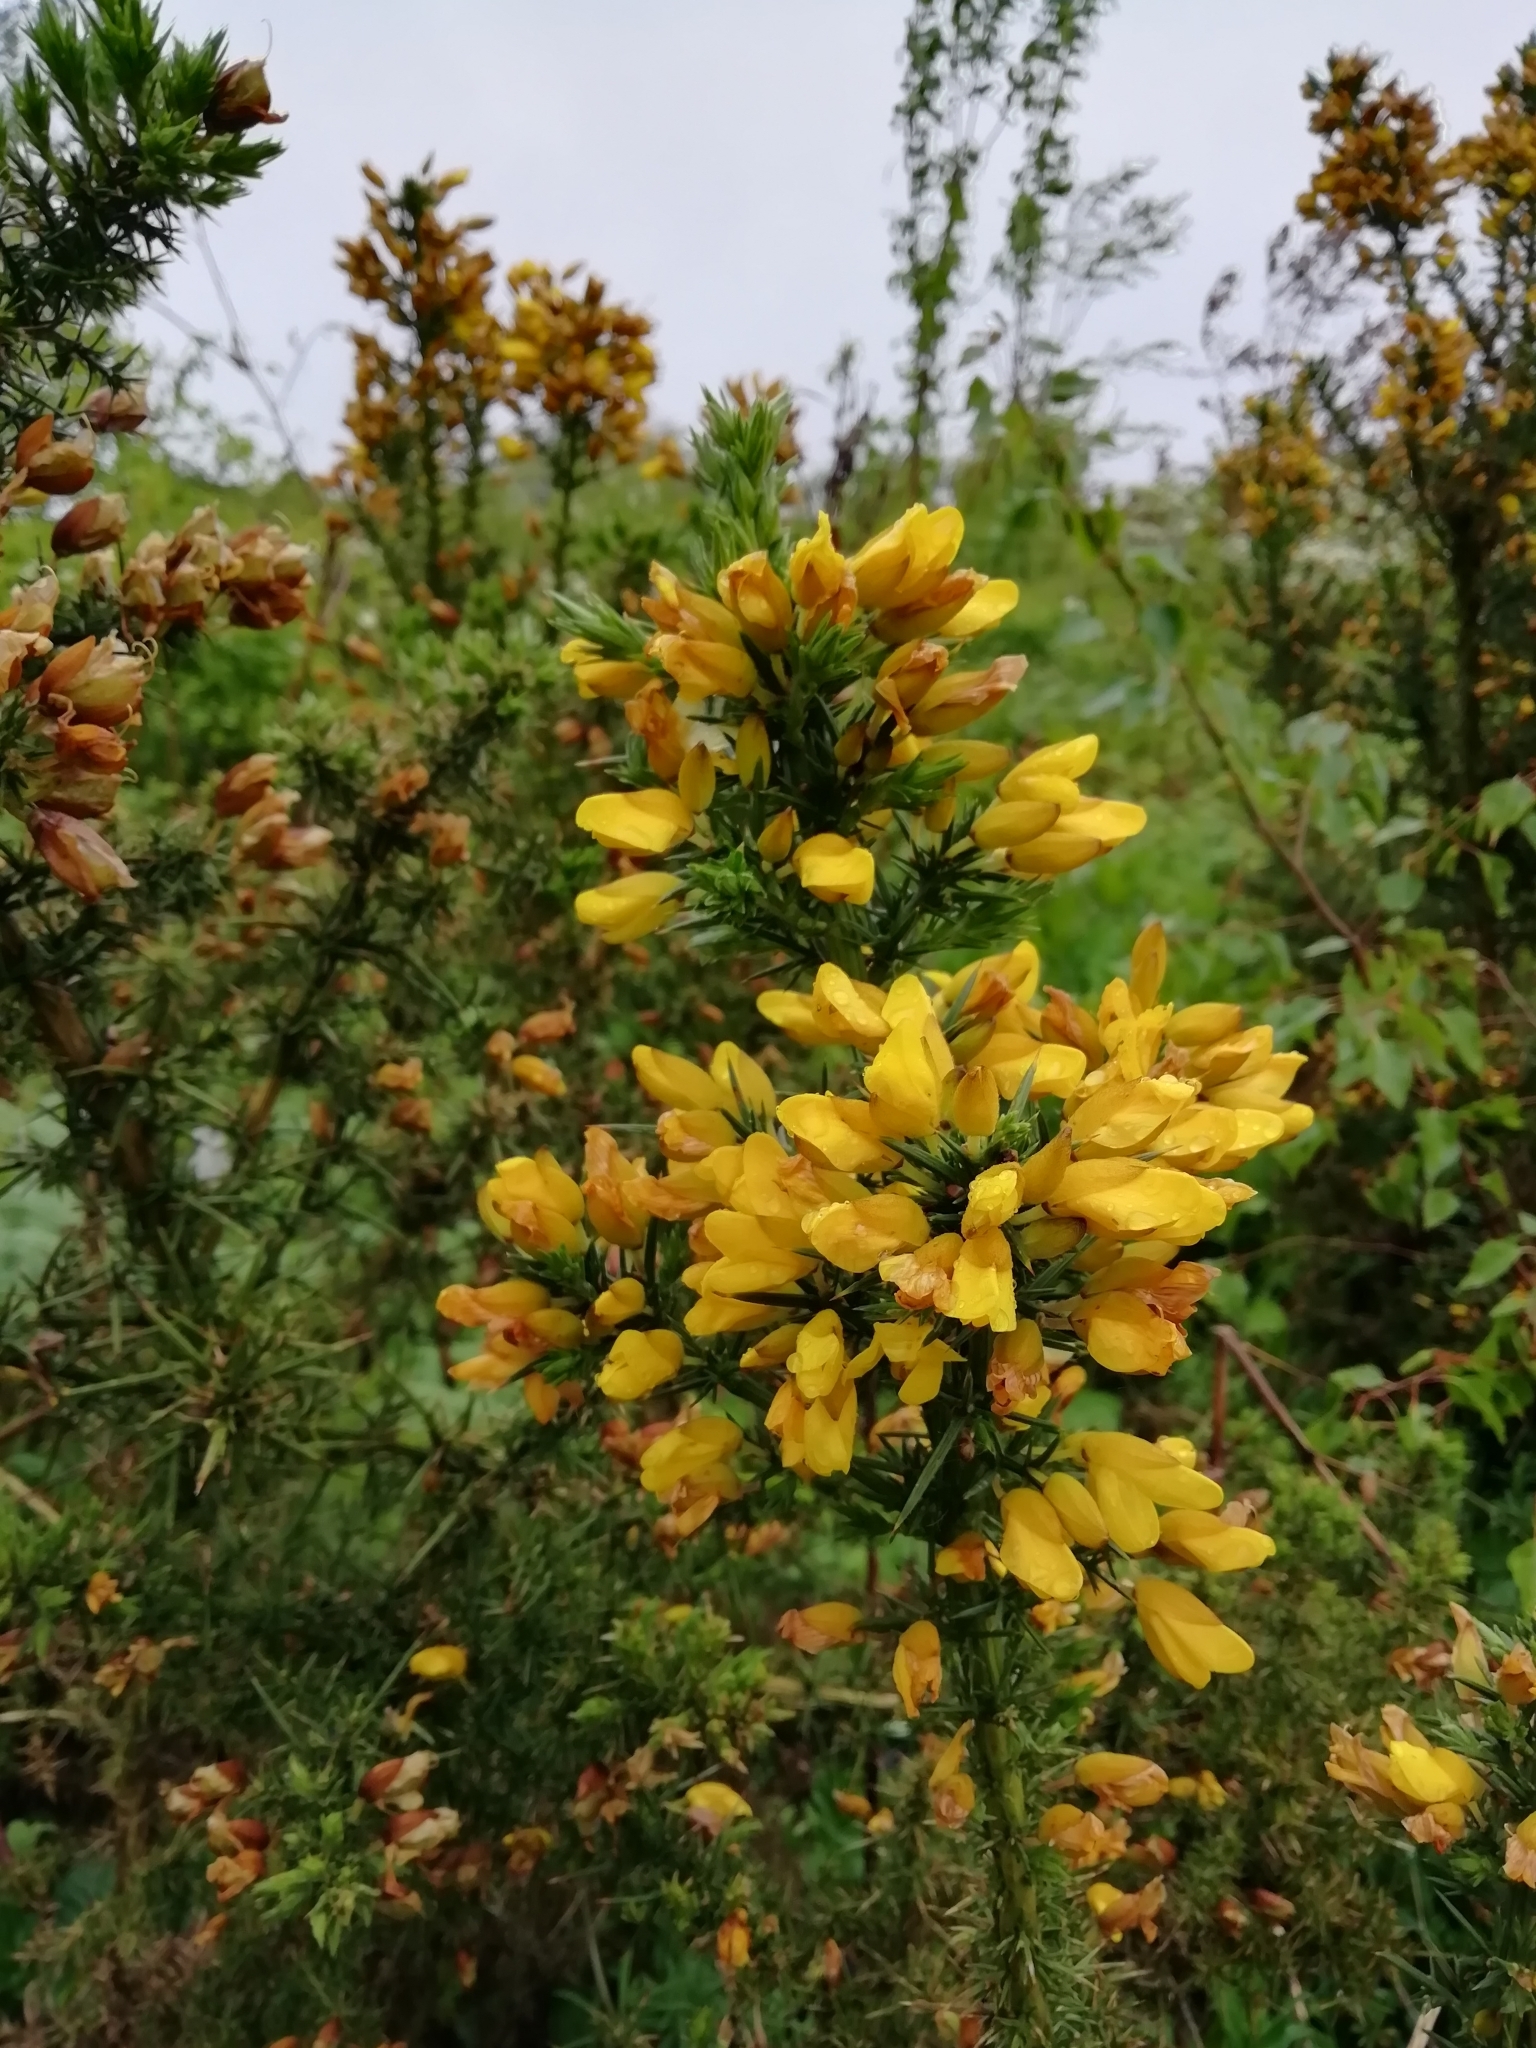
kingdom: Plantae
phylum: Tracheophyta
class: Magnoliopsida
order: Fabales
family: Fabaceae
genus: Ulex
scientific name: Ulex europaeus
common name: Common gorse
